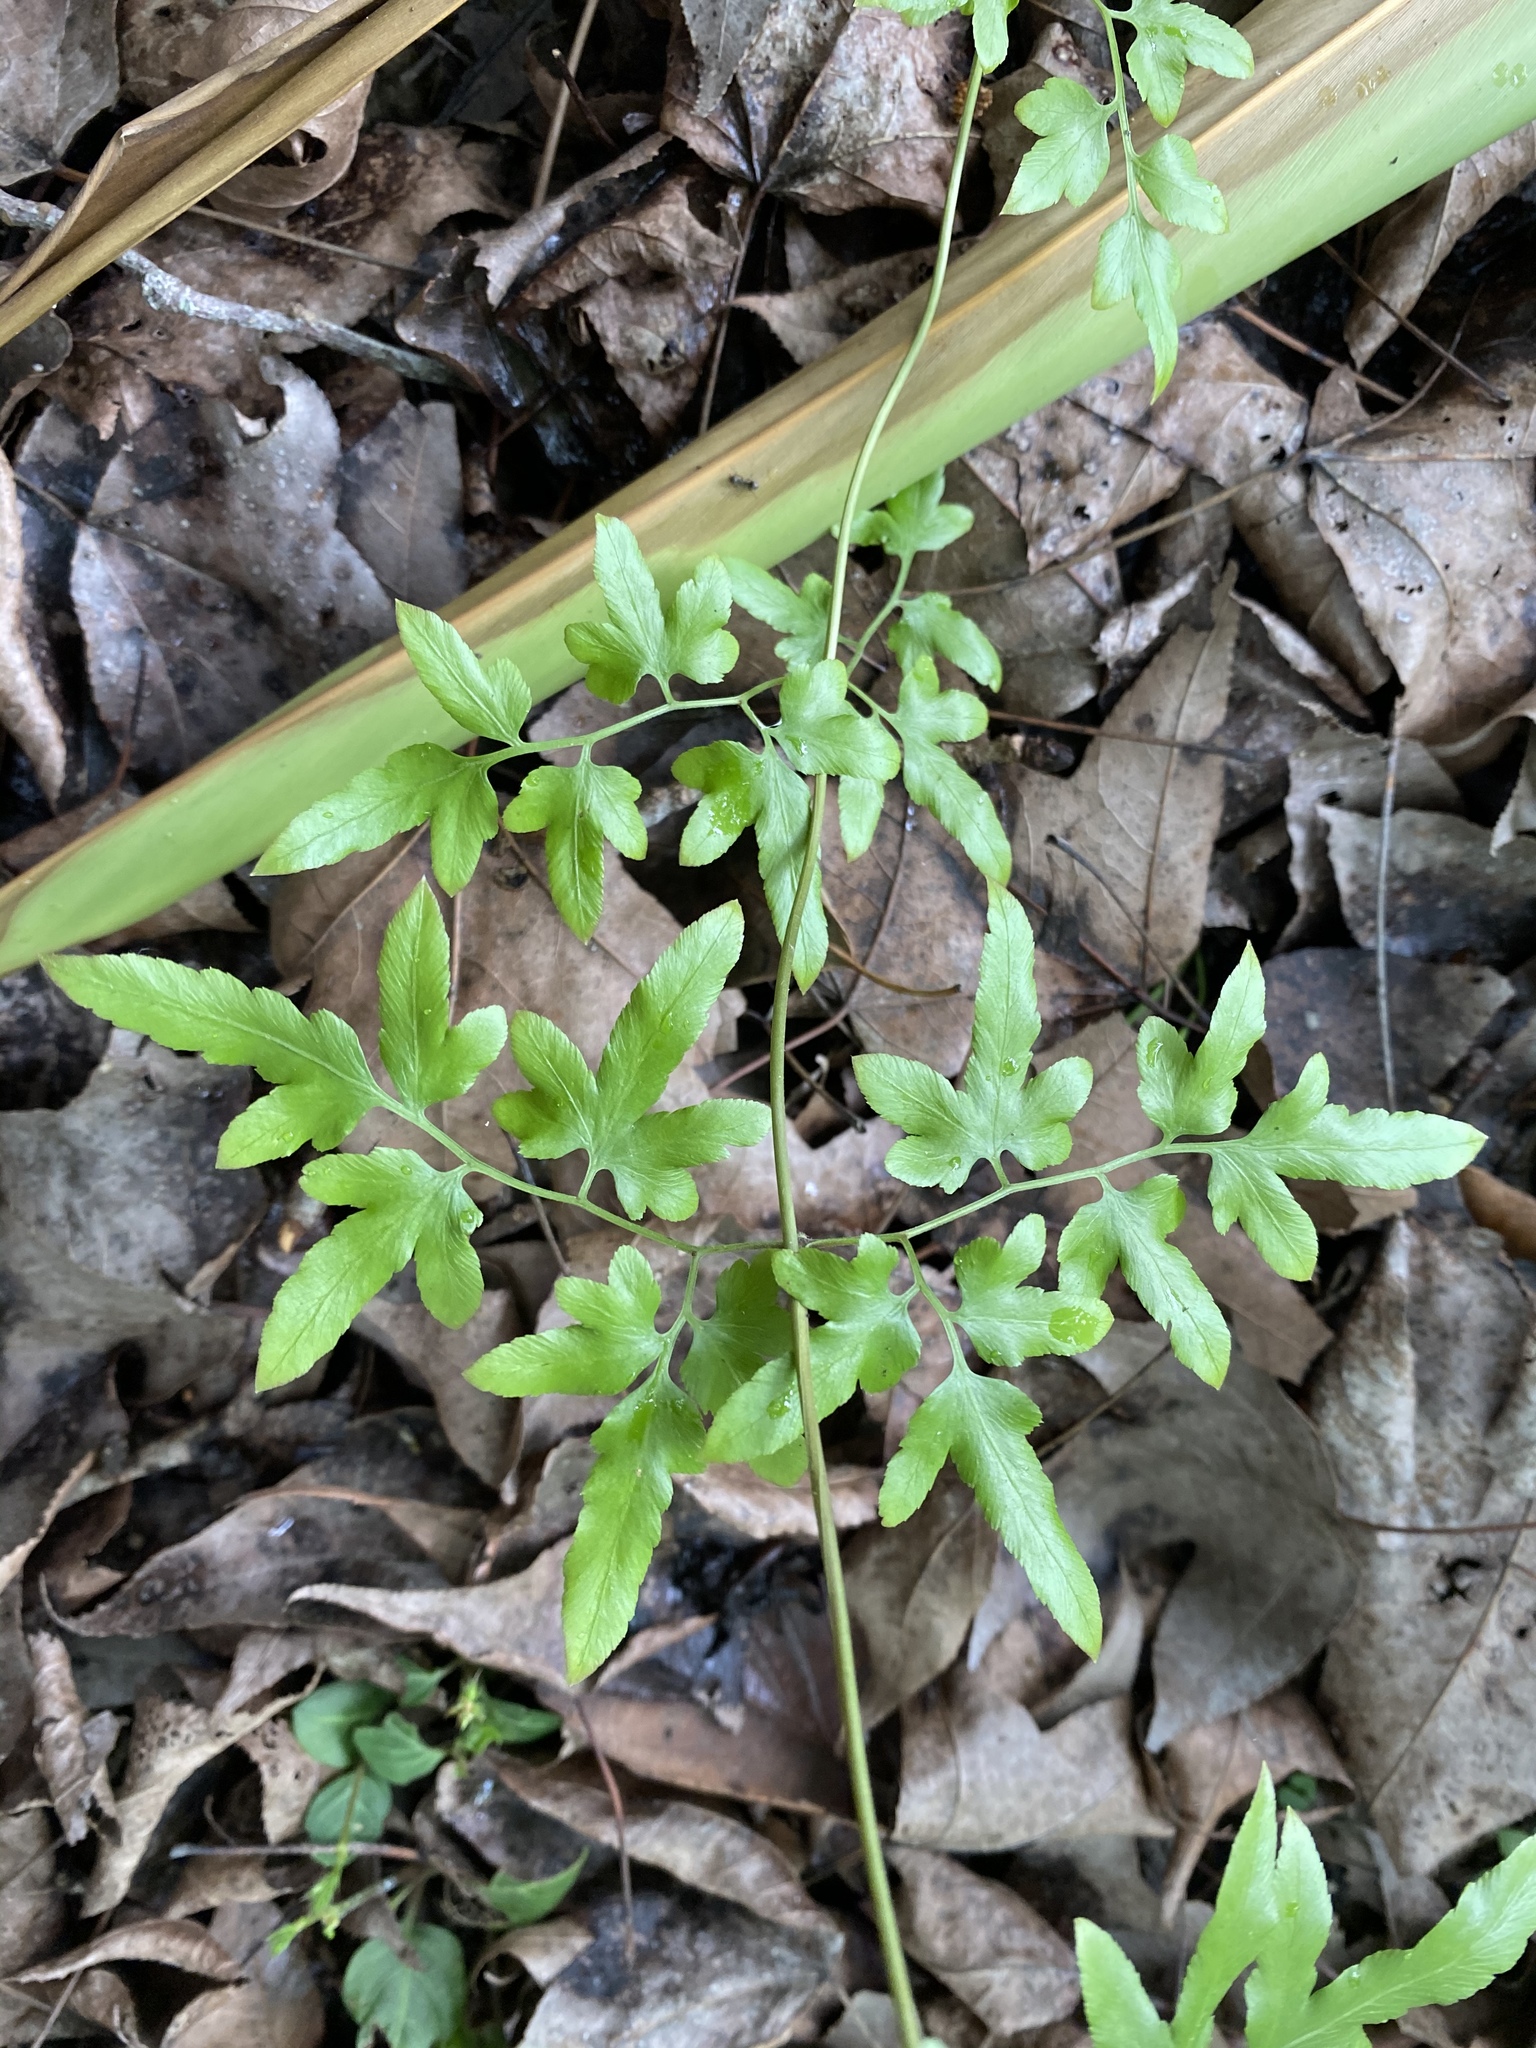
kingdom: Plantae
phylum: Tracheophyta
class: Polypodiopsida
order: Schizaeales
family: Lygodiaceae
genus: Lygodium
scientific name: Lygodium japonicum
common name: Japanese climbing fern
